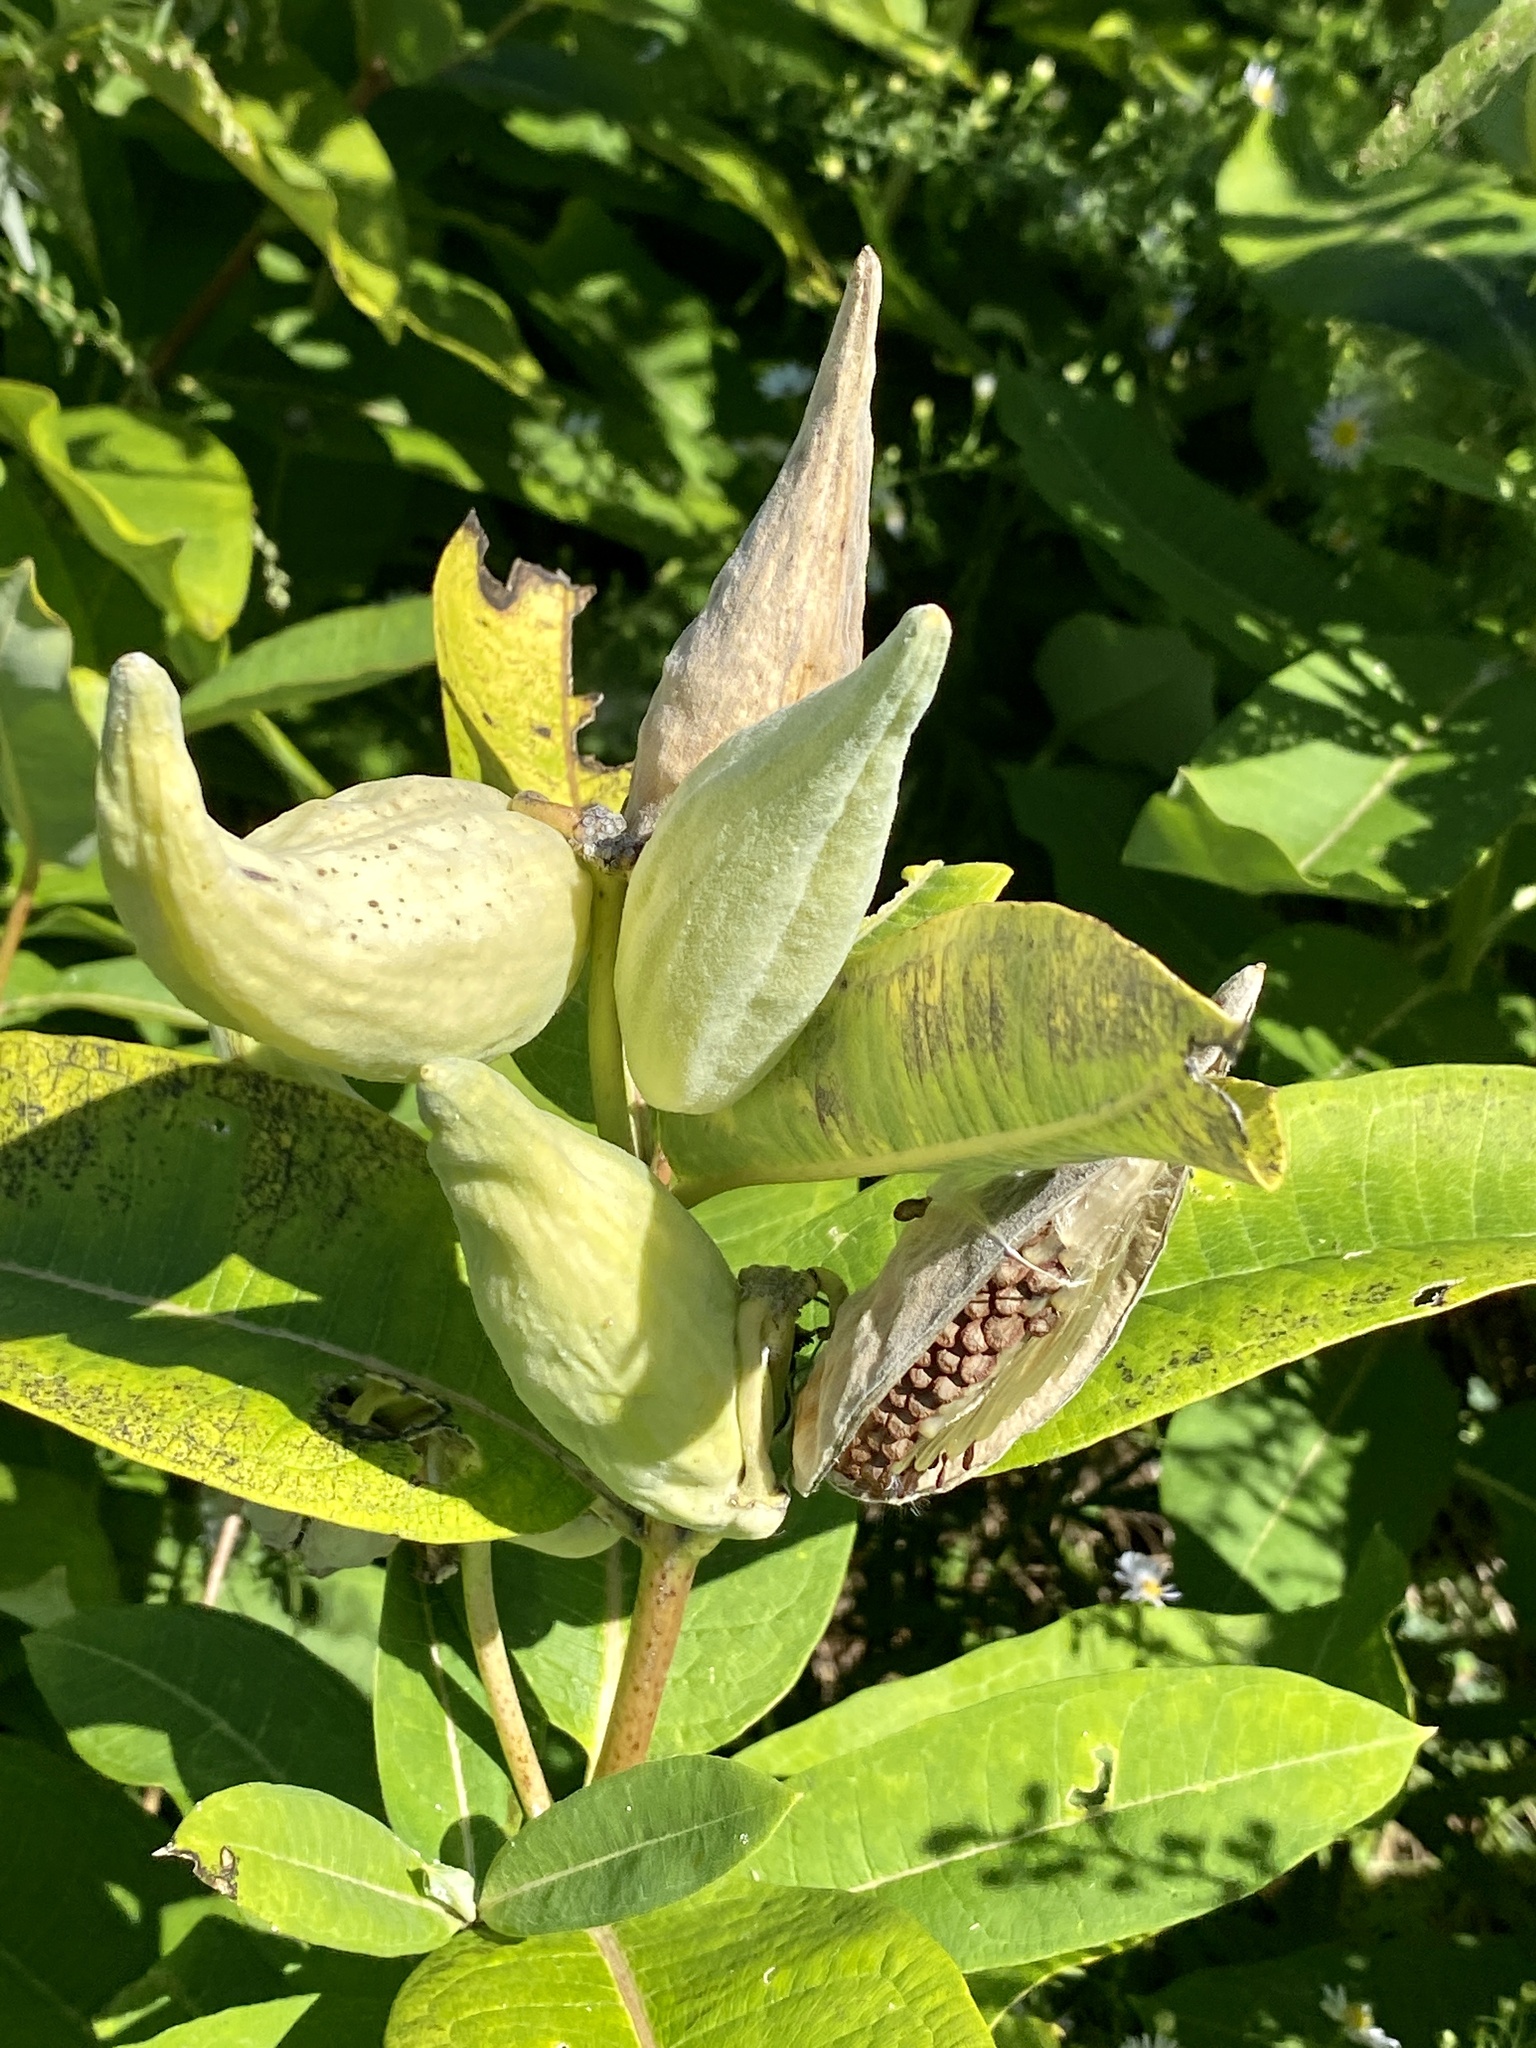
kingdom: Plantae
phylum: Tracheophyta
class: Magnoliopsida
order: Gentianales
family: Apocynaceae
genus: Asclepias
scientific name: Asclepias syriaca
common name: Common milkweed
